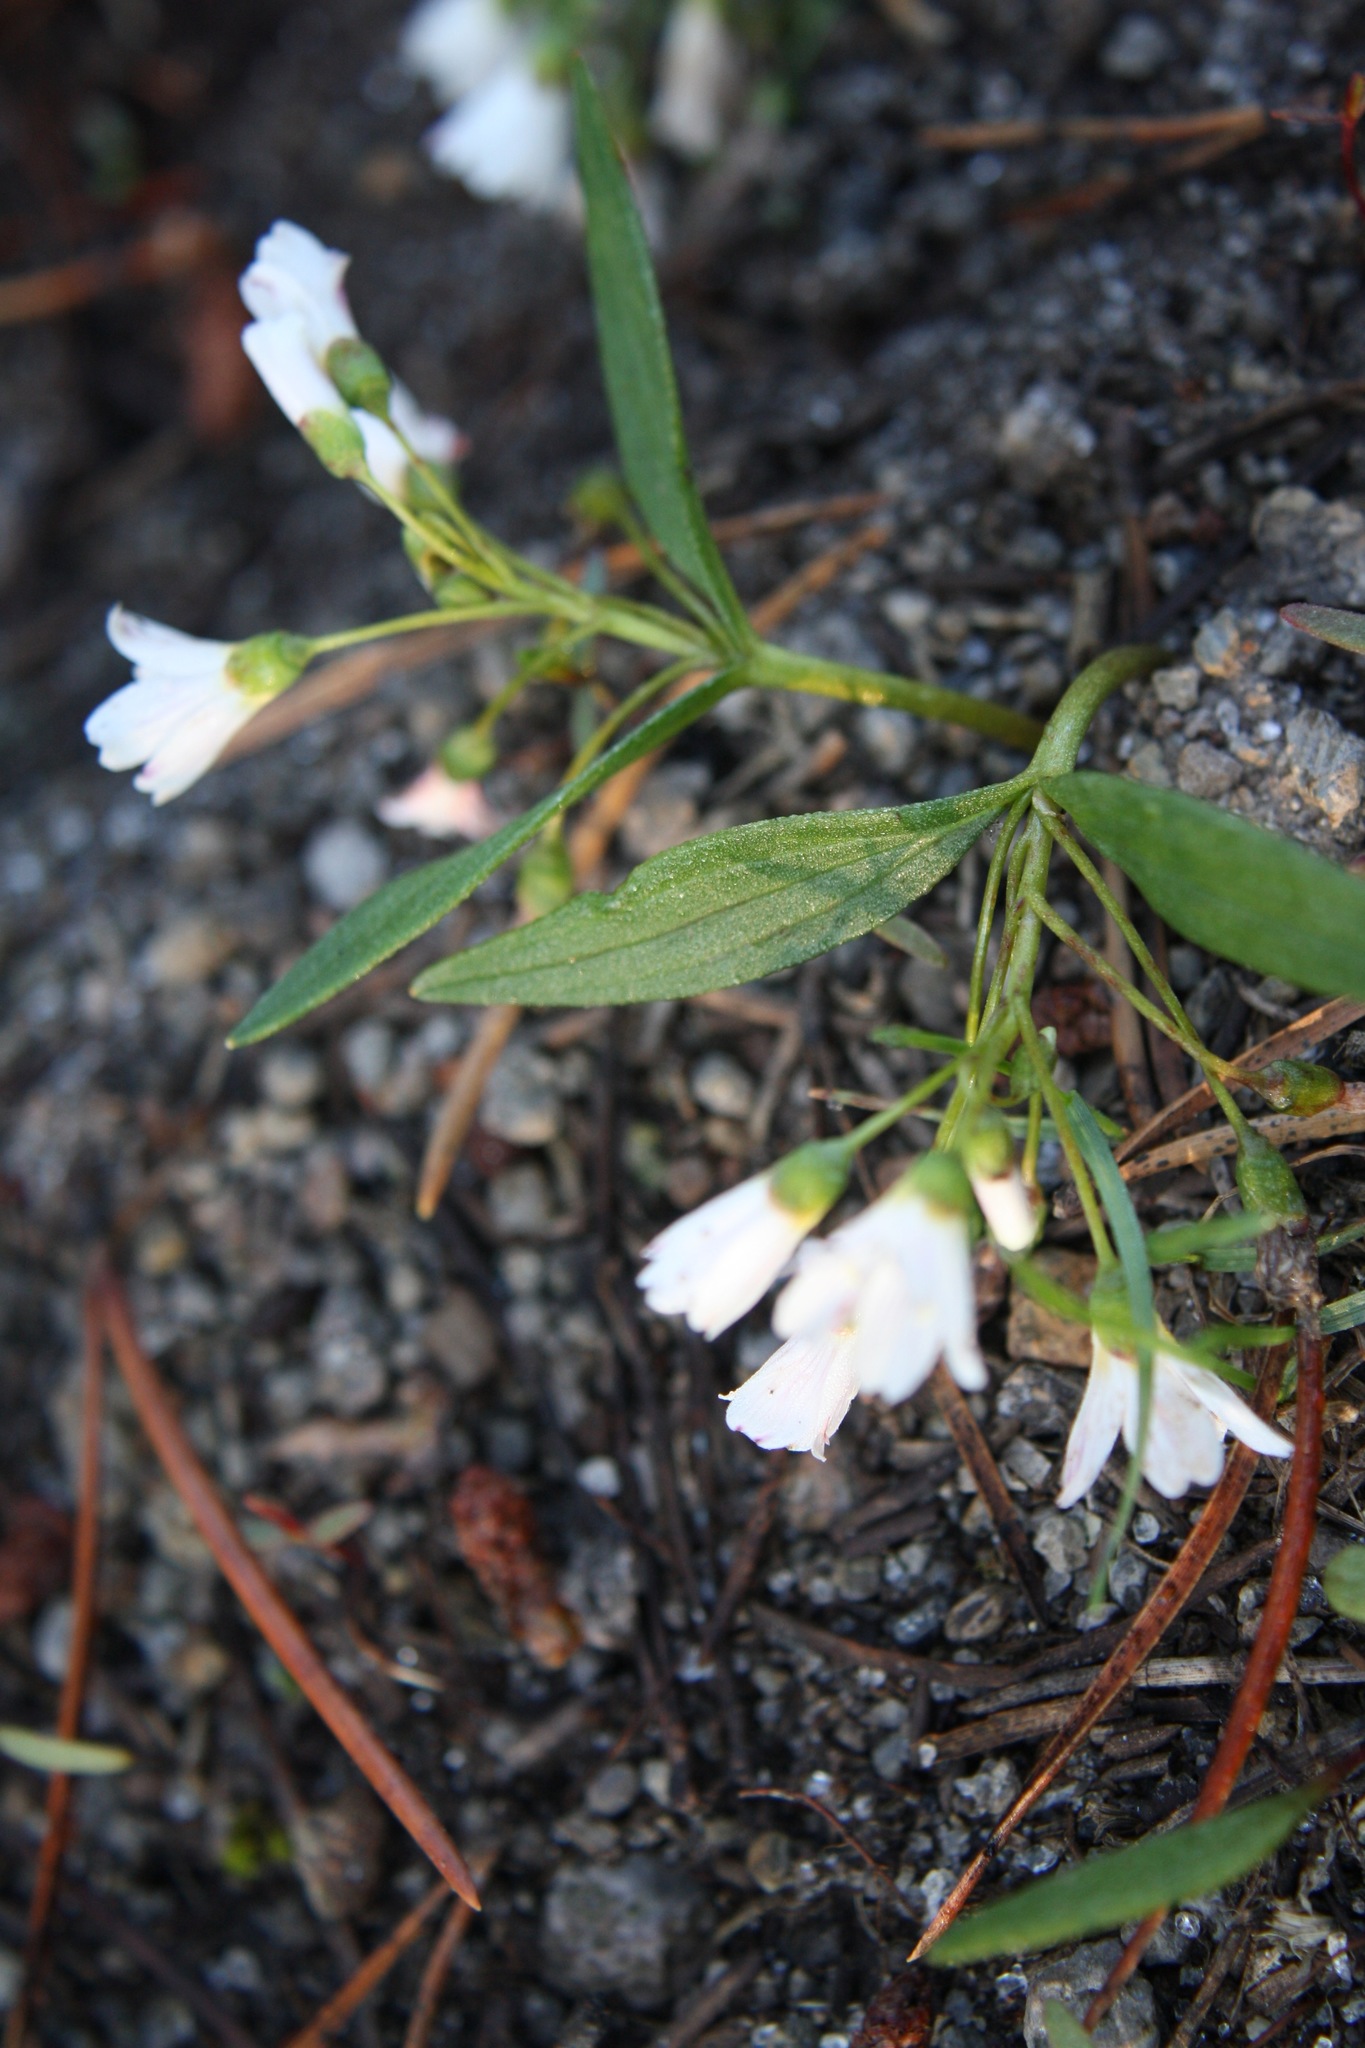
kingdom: Plantae
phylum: Tracheophyta
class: Magnoliopsida
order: Caryophyllales
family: Montiaceae
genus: Claytonia
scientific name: Claytonia lanceolata
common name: Western spring-beauty
